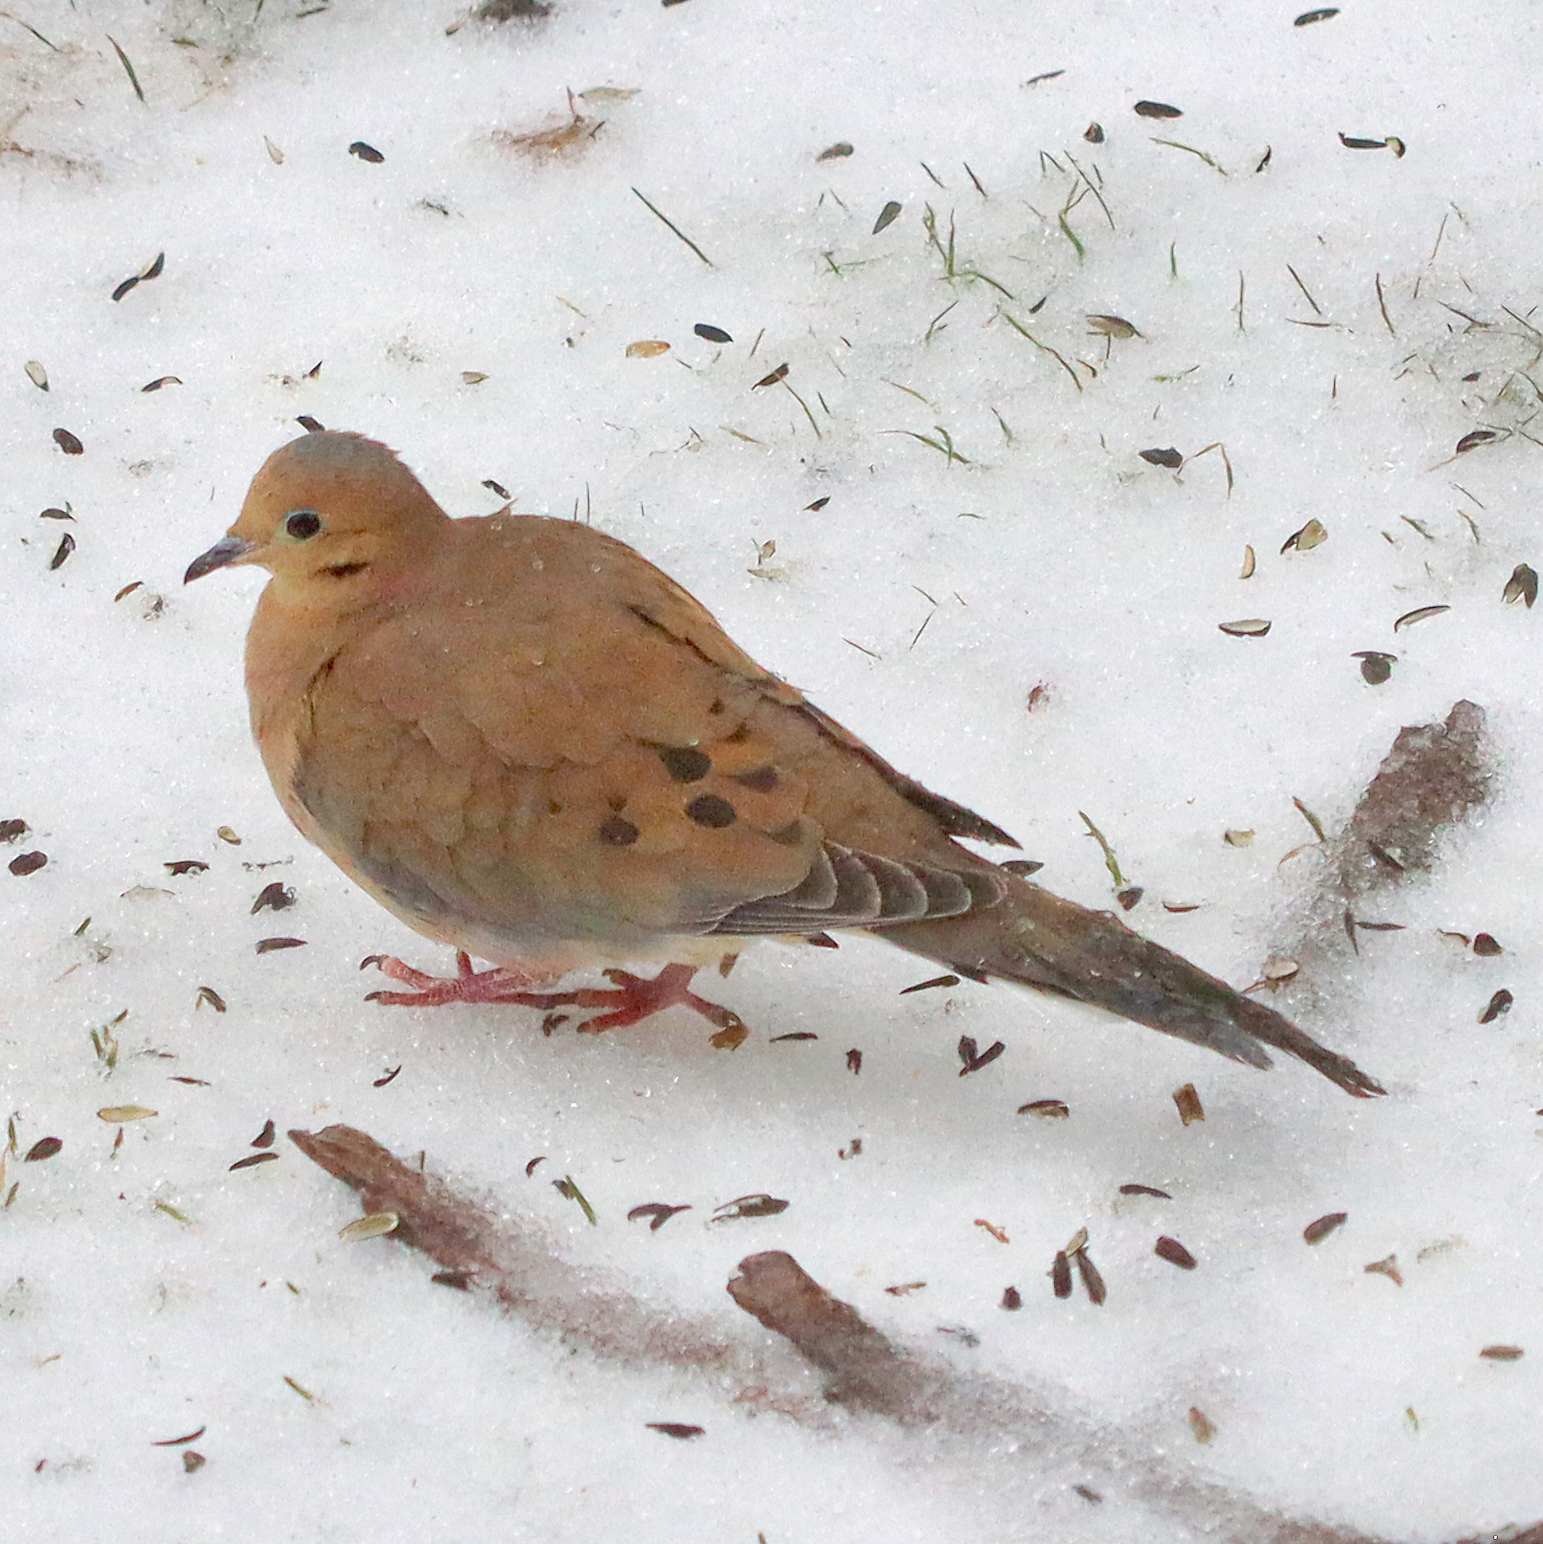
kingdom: Animalia
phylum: Chordata
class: Aves
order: Columbiformes
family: Columbidae
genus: Zenaida
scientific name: Zenaida macroura
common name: Mourning dove
